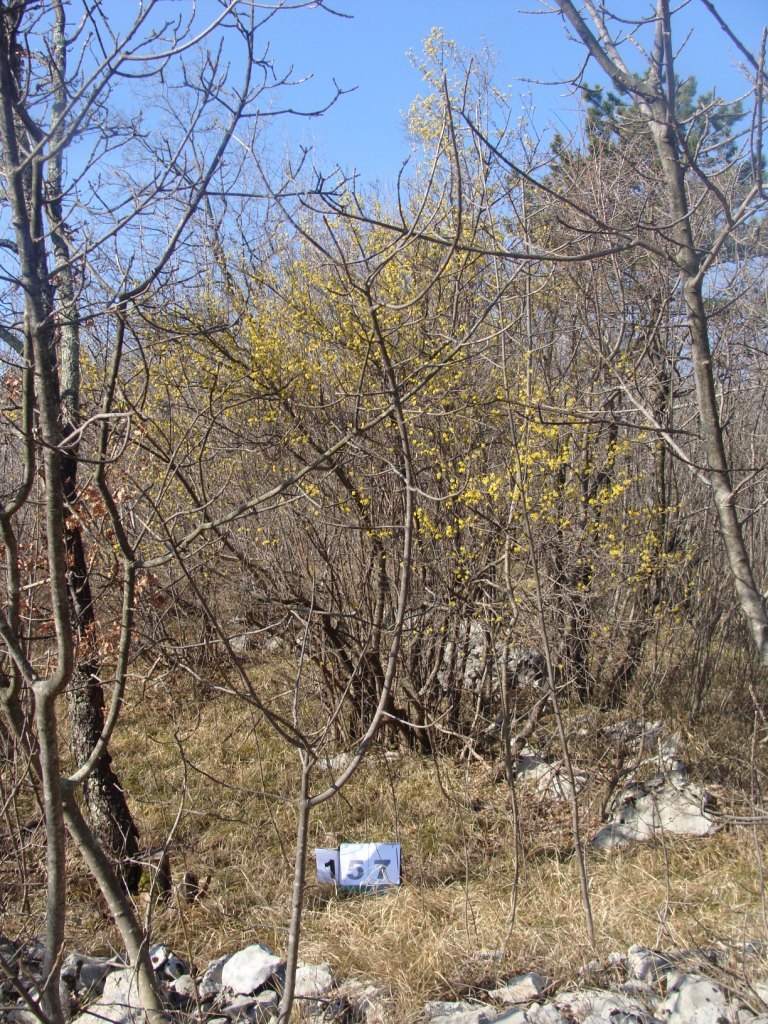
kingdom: Plantae
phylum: Tracheophyta
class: Magnoliopsida
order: Cornales
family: Cornaceae
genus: Cornus
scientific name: Cornus mas
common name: Cornelian-cherry
